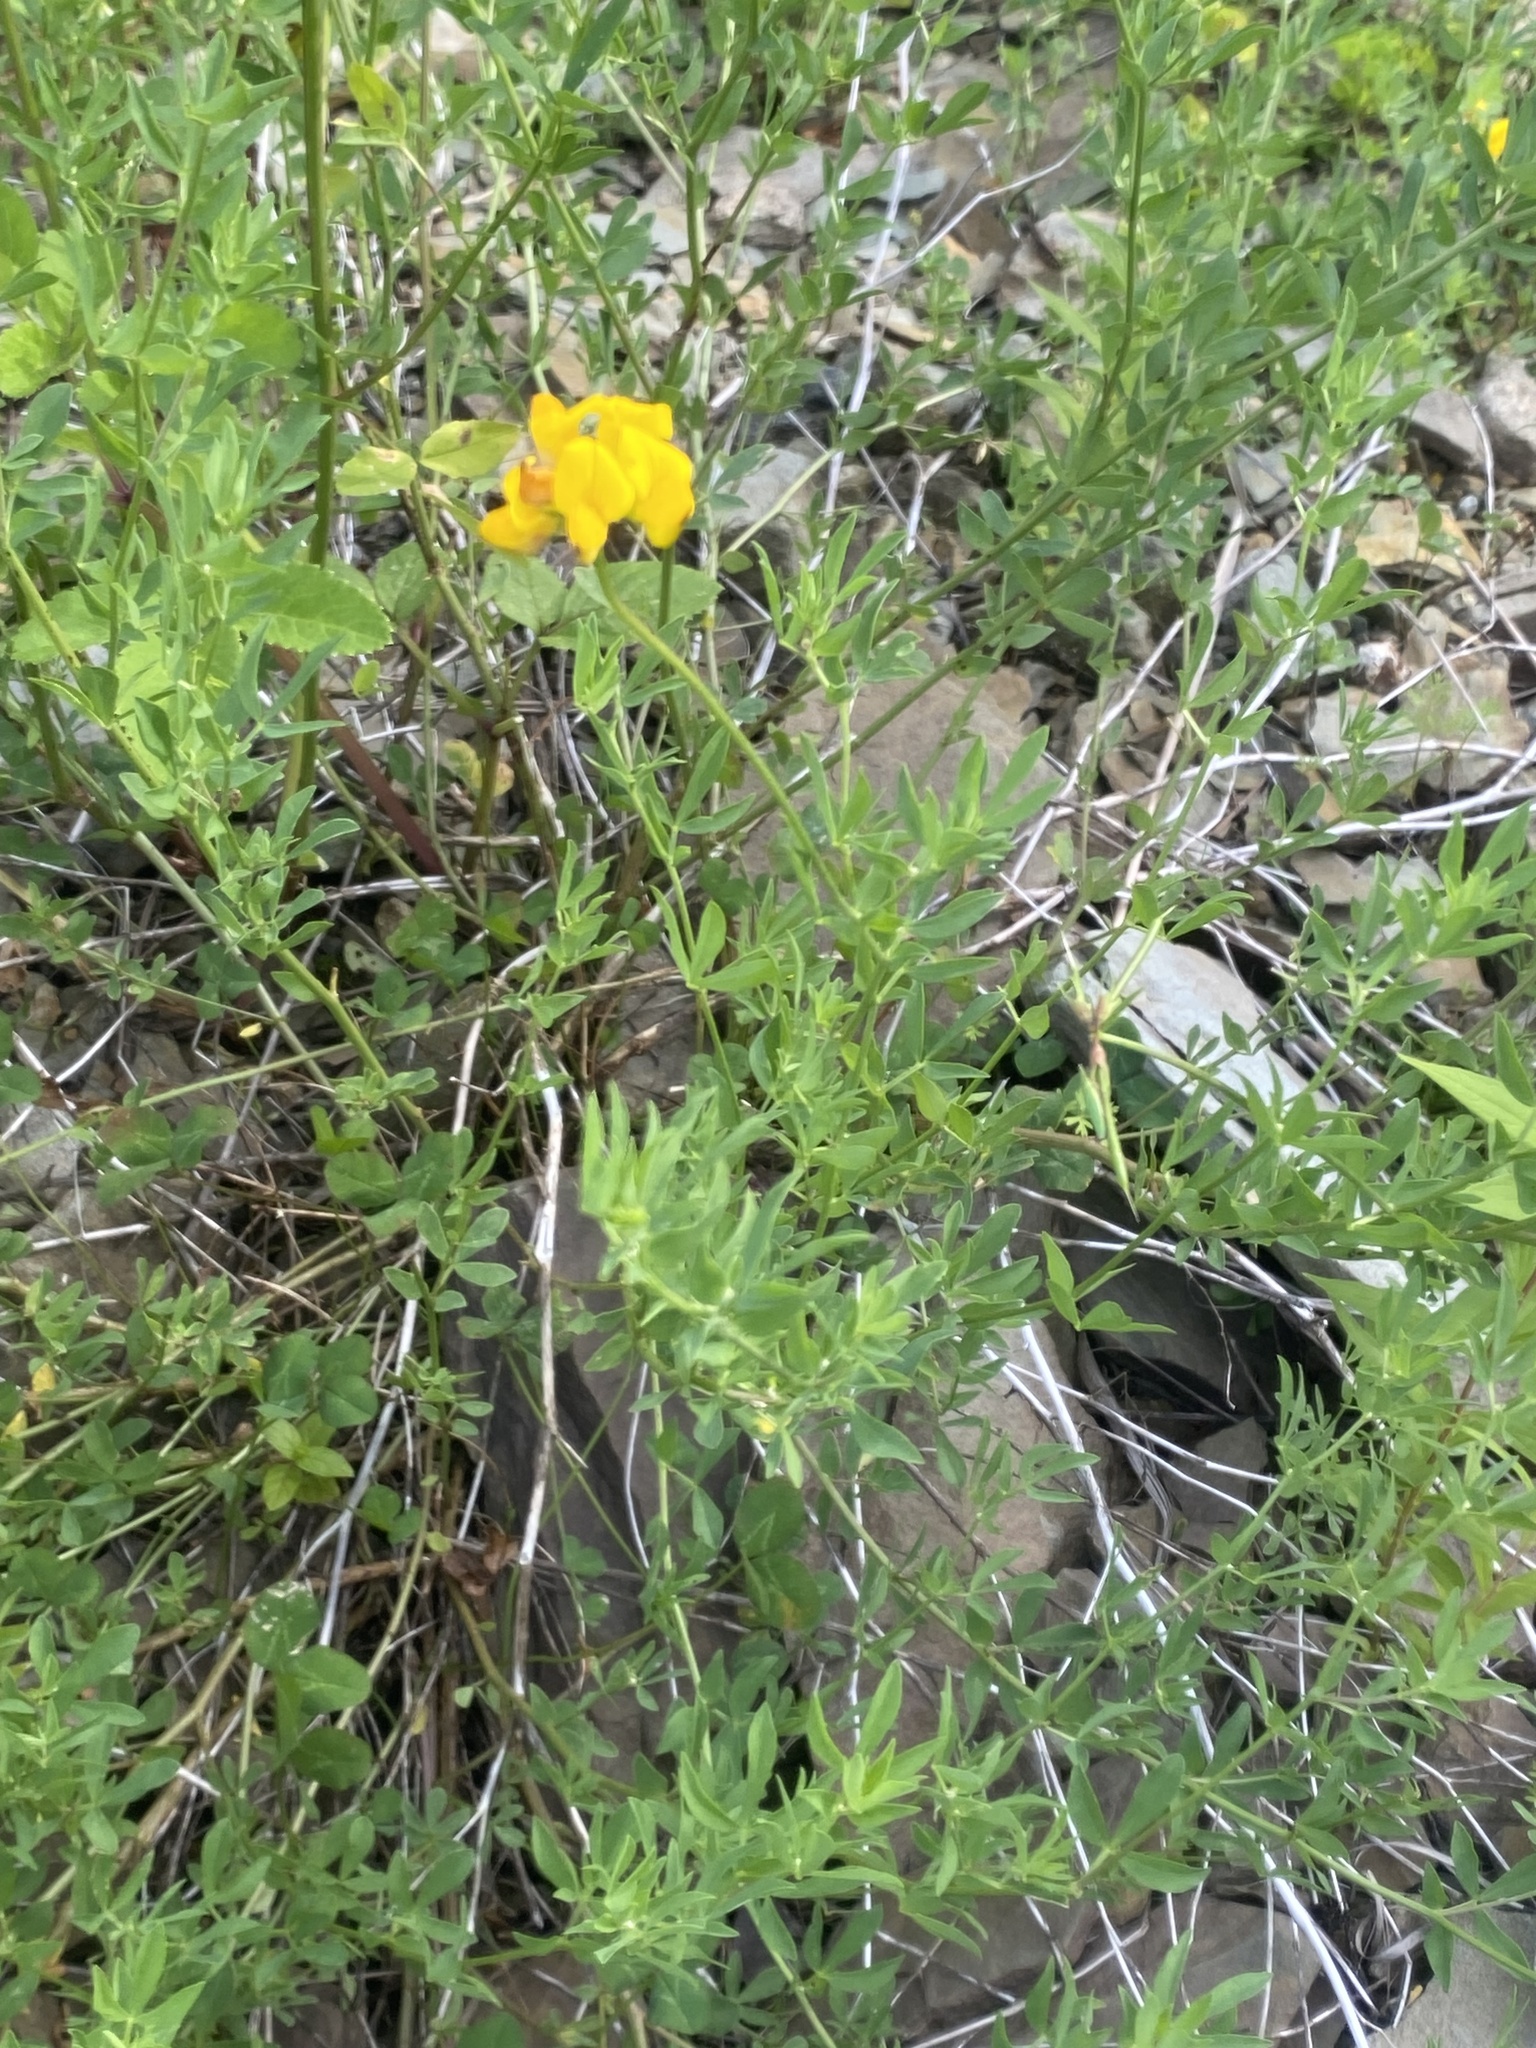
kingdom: Plantae
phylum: Tracheophyta
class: Magnoliopsida
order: Fabales
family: Fabaceae
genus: Lotus
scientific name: Lotus corniculatus
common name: Common bird's-foot-trefoil
